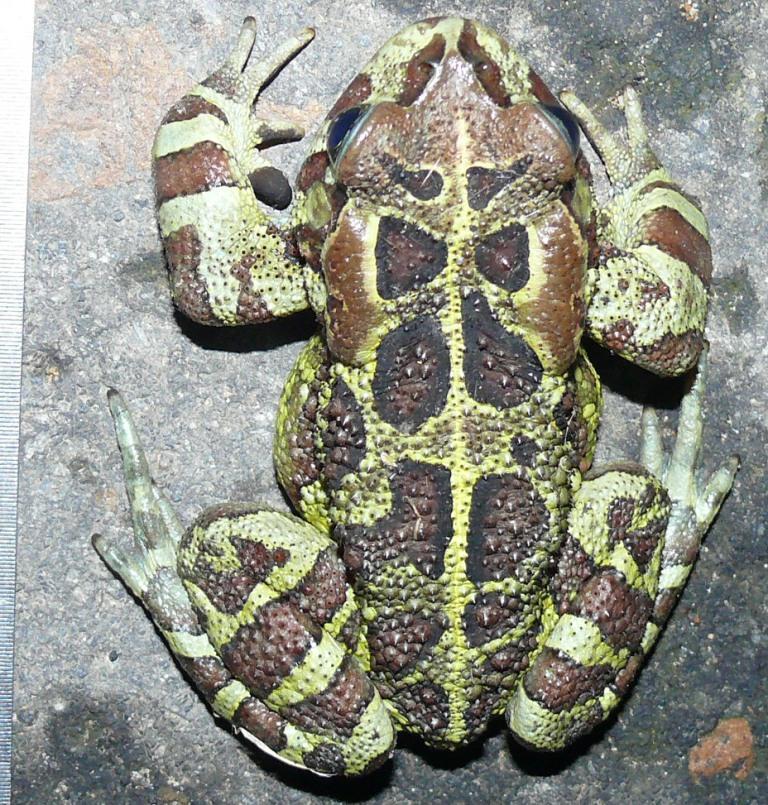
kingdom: Animalia
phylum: Chordata
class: Amphibia
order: Anura
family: Bufonidae
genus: Sclerophrys
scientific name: Sclerophrys pantherina
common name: Panther toad
